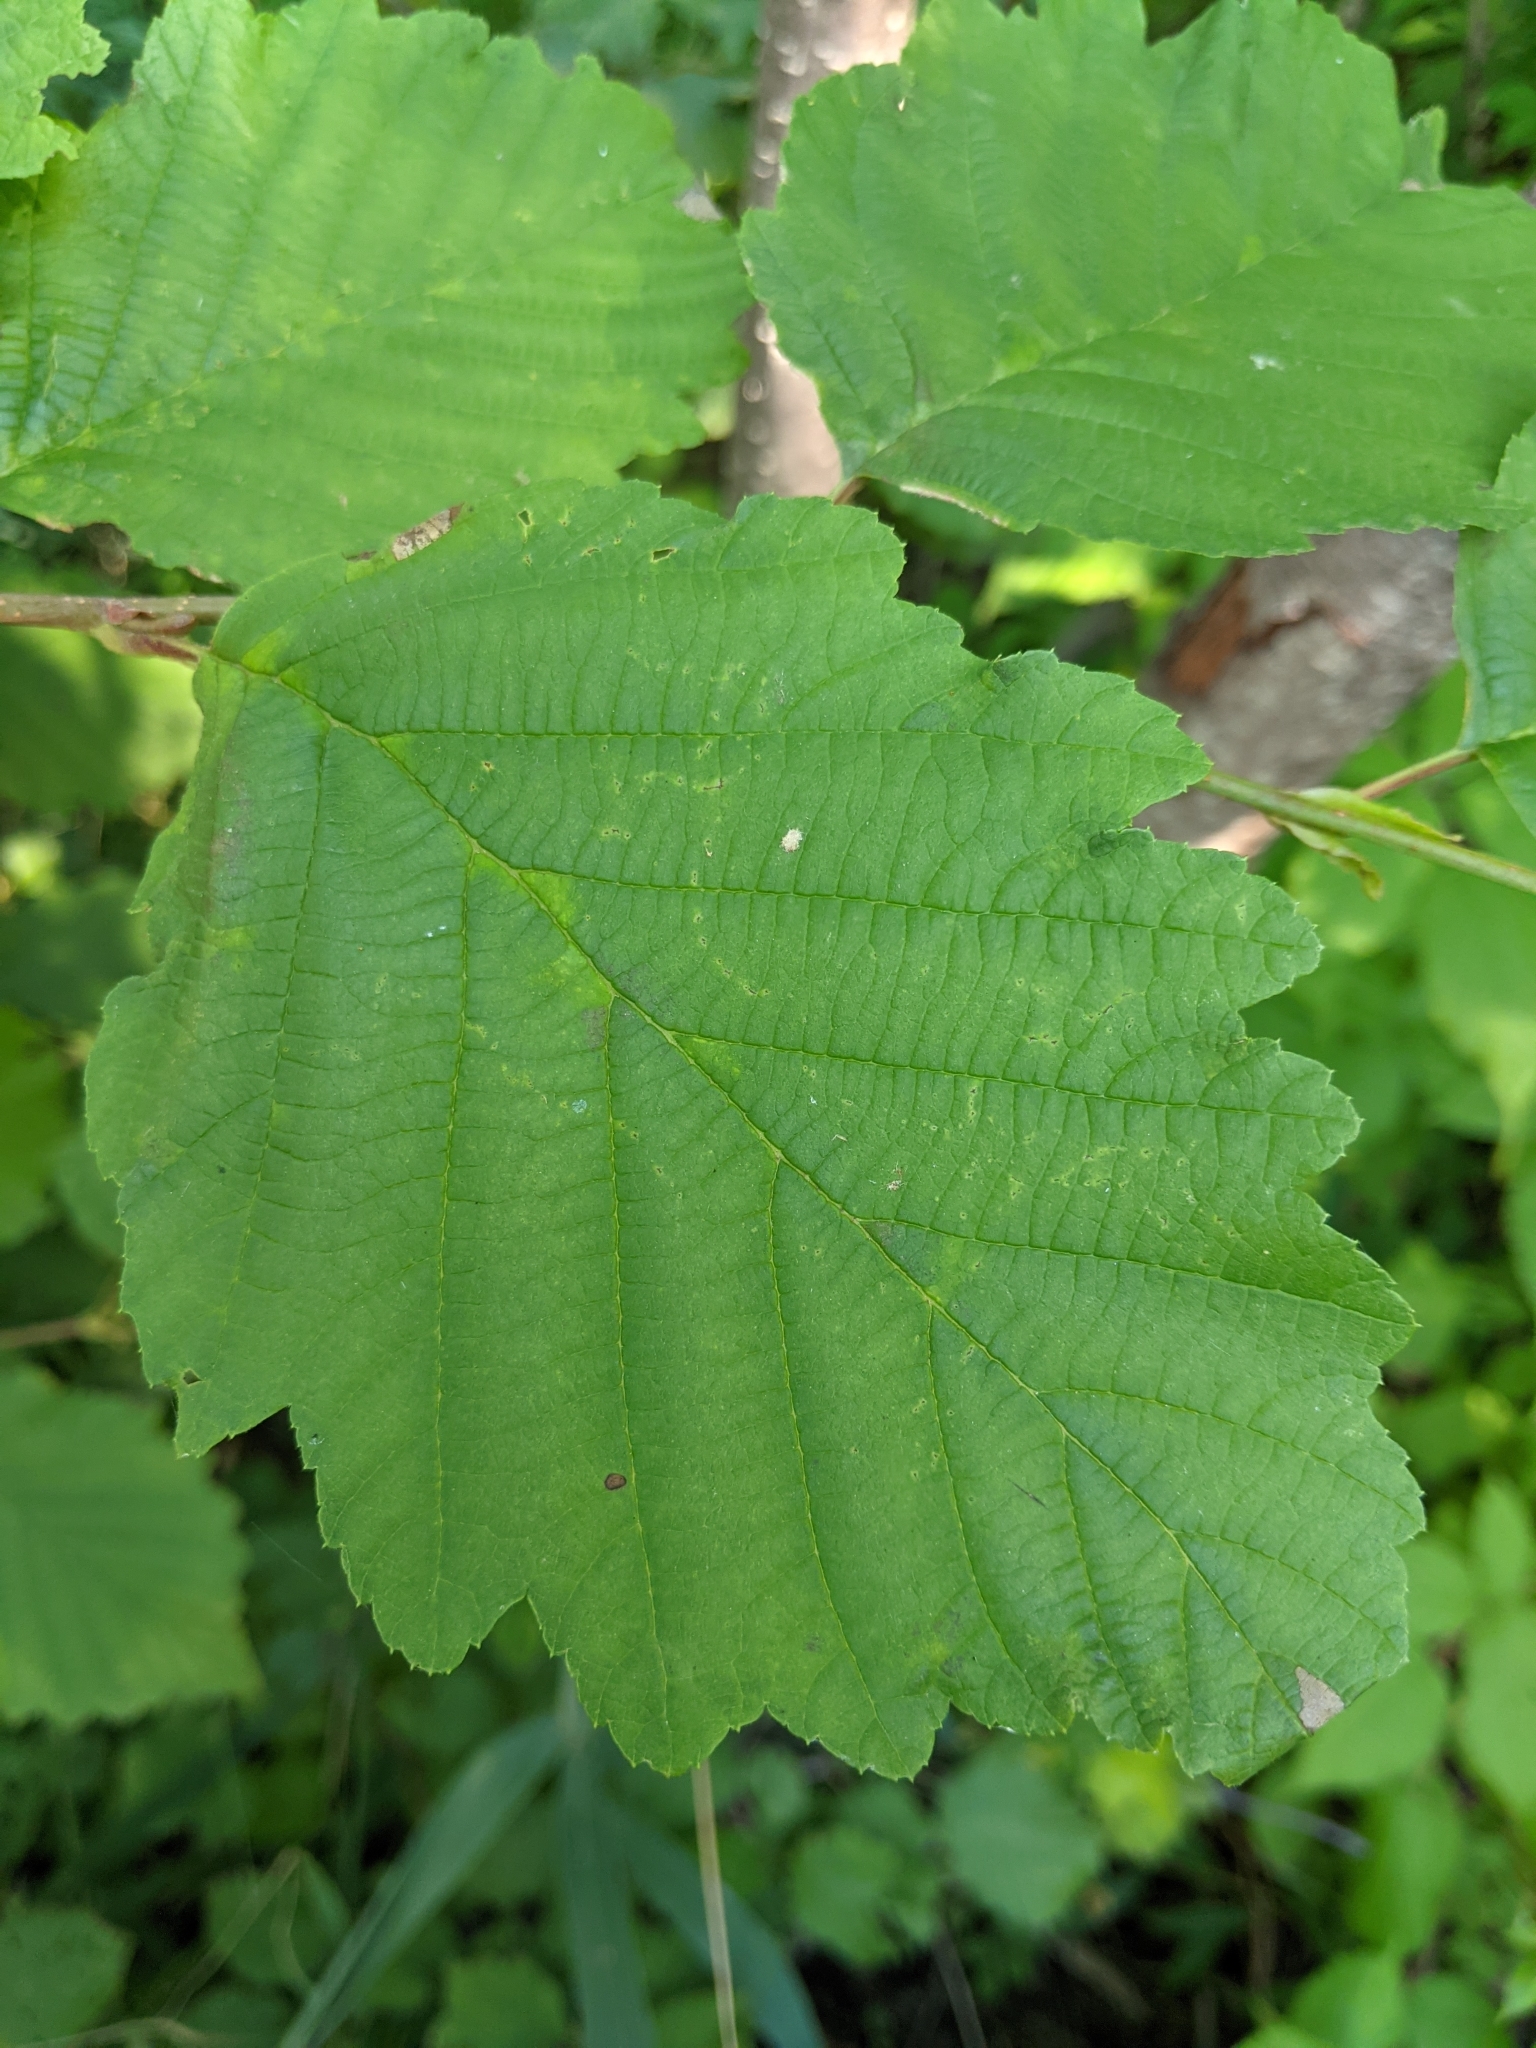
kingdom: Plantae
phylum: Tracheophyta
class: Magnoliopsida
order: Fagales
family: Betulaceae
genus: Alnus
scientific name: Alnus incana
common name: Grey alder
